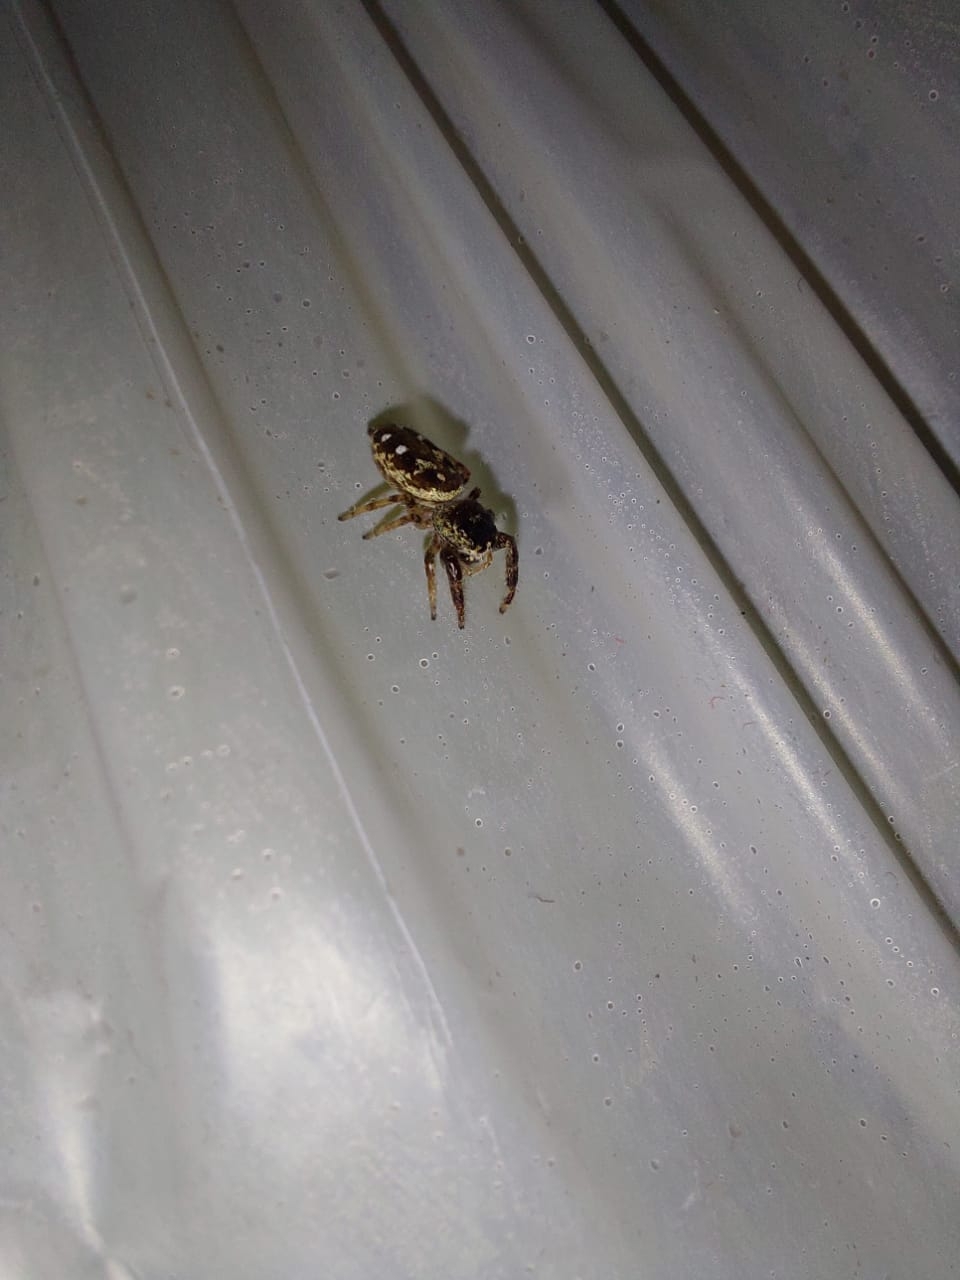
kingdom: Animalia
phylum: Arthropoda
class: Arachnida
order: Araneae
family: Salticidae
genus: Dendryphantes
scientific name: Dendryphantes mordax
